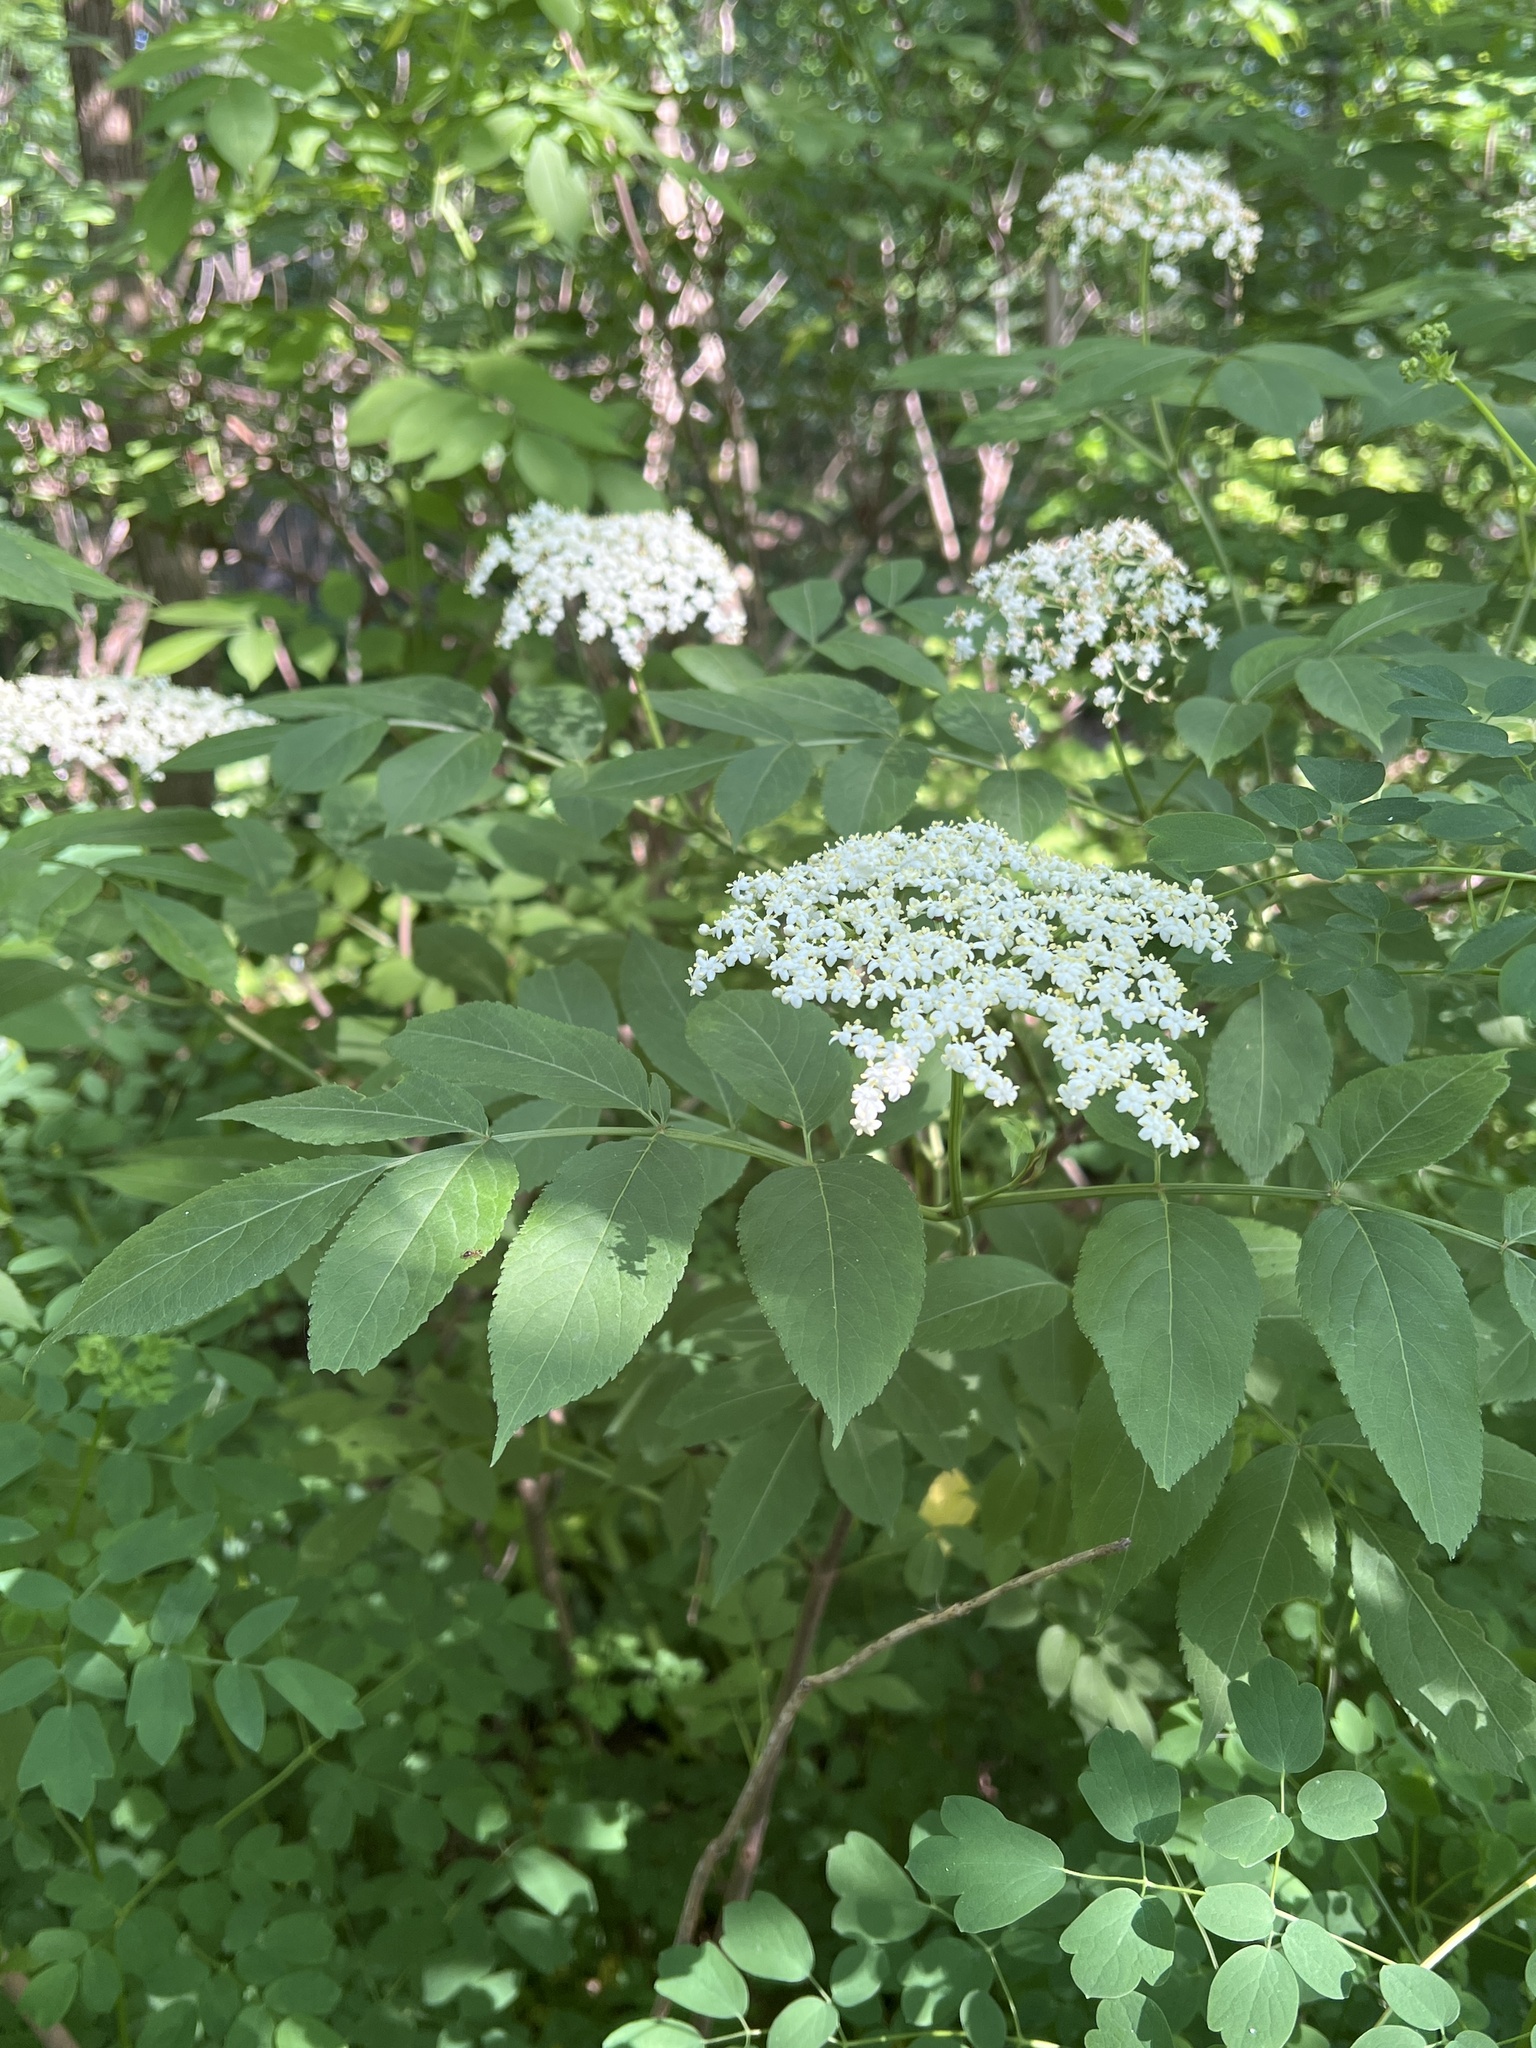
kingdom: Plantae
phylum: Tracheophyta
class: Magnoliopsida
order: Dipsacales
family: Viburnaceae
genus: Sambucus
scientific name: Sambucus canadensis
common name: American elder
